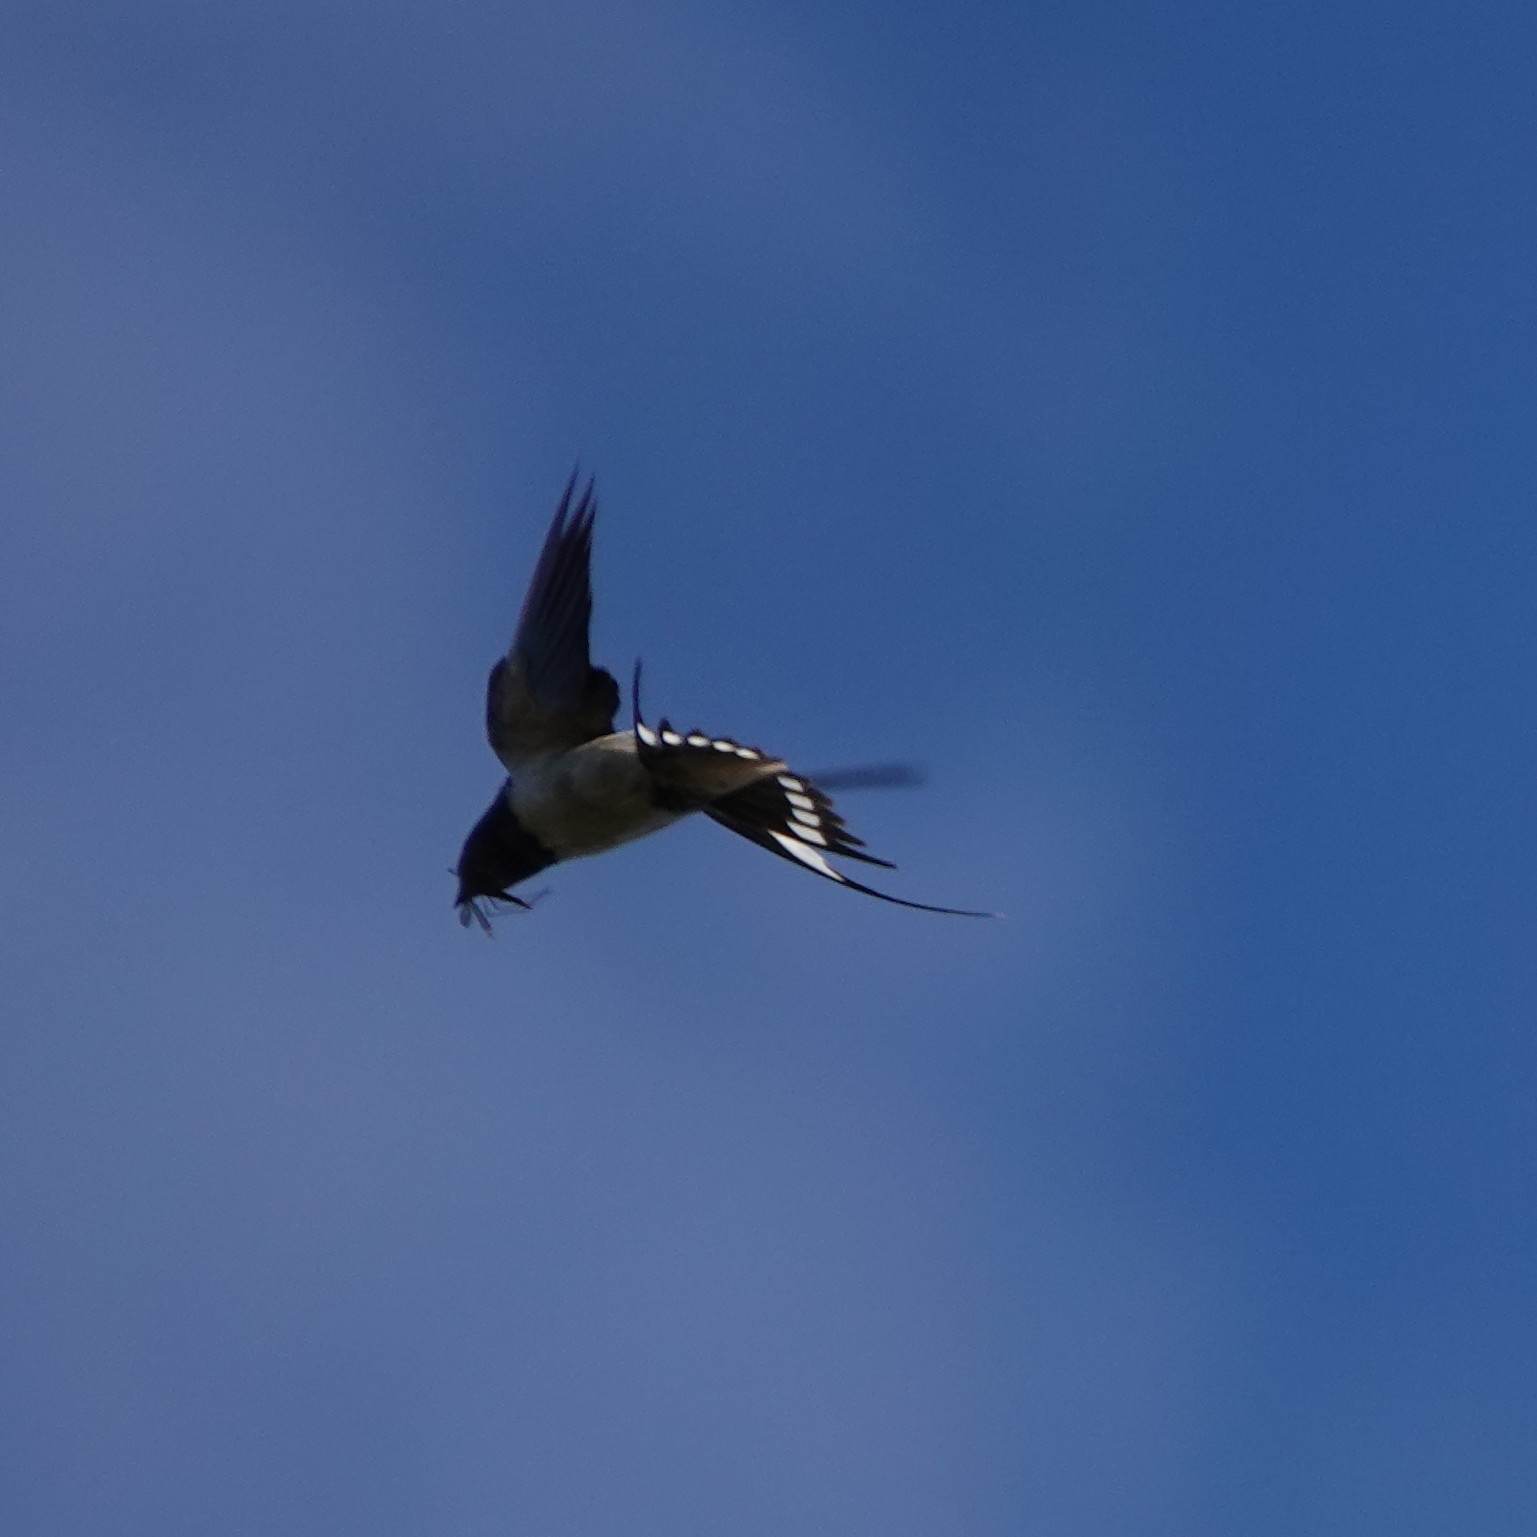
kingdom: Animalia
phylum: Chordata
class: Aves
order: Passeriformes
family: Hirundinidae
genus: Hirundo
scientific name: Hirundo rustica
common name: Barn swallow
